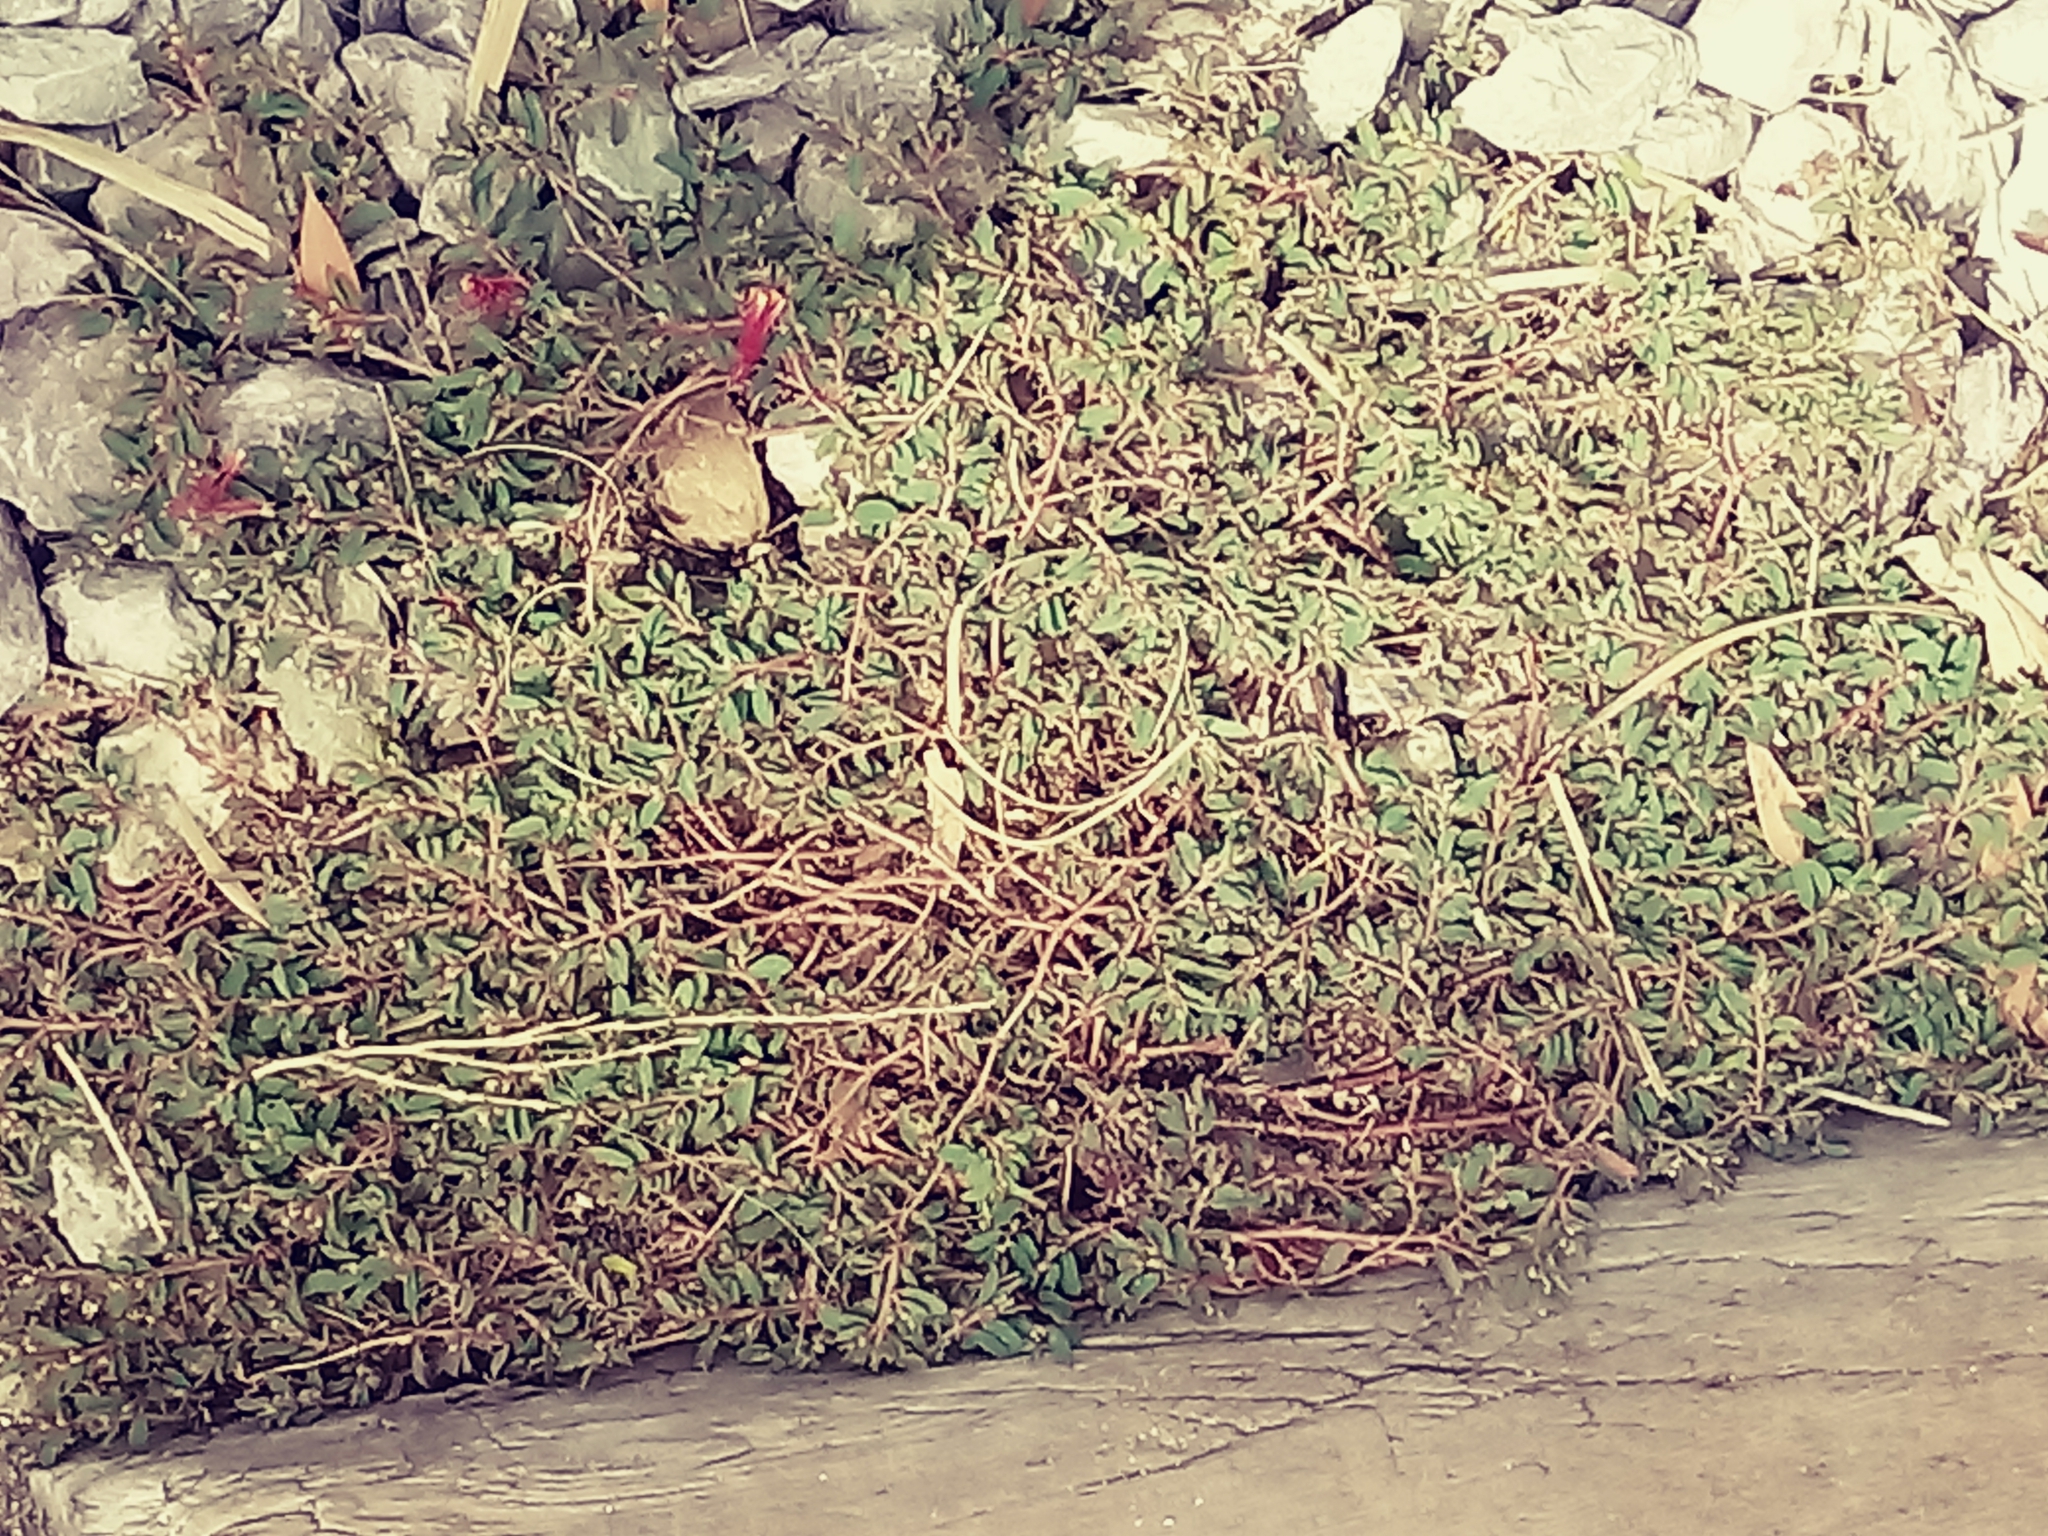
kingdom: Plantae
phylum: Tracheophyta
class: Magnoliopsida
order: Malpighiales
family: Euphorbiaceae
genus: Euphorbia
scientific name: Euphorbia maculata
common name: Spotted spurge
